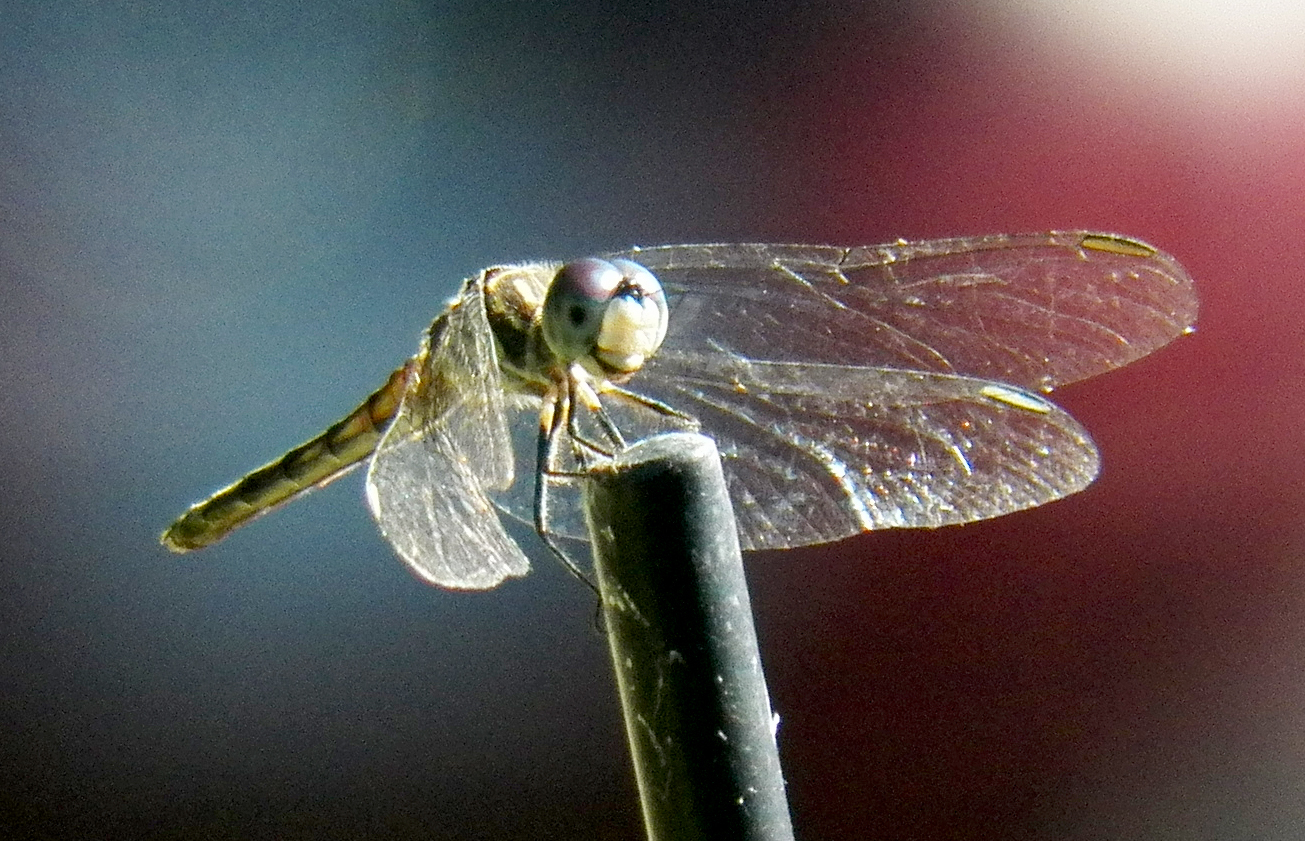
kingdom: Animalia
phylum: Arthropoda
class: Insecta
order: Odonata
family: Libellulidae
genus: Pachydiplax
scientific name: Pachydiplax longipennis
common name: Blue dasher
